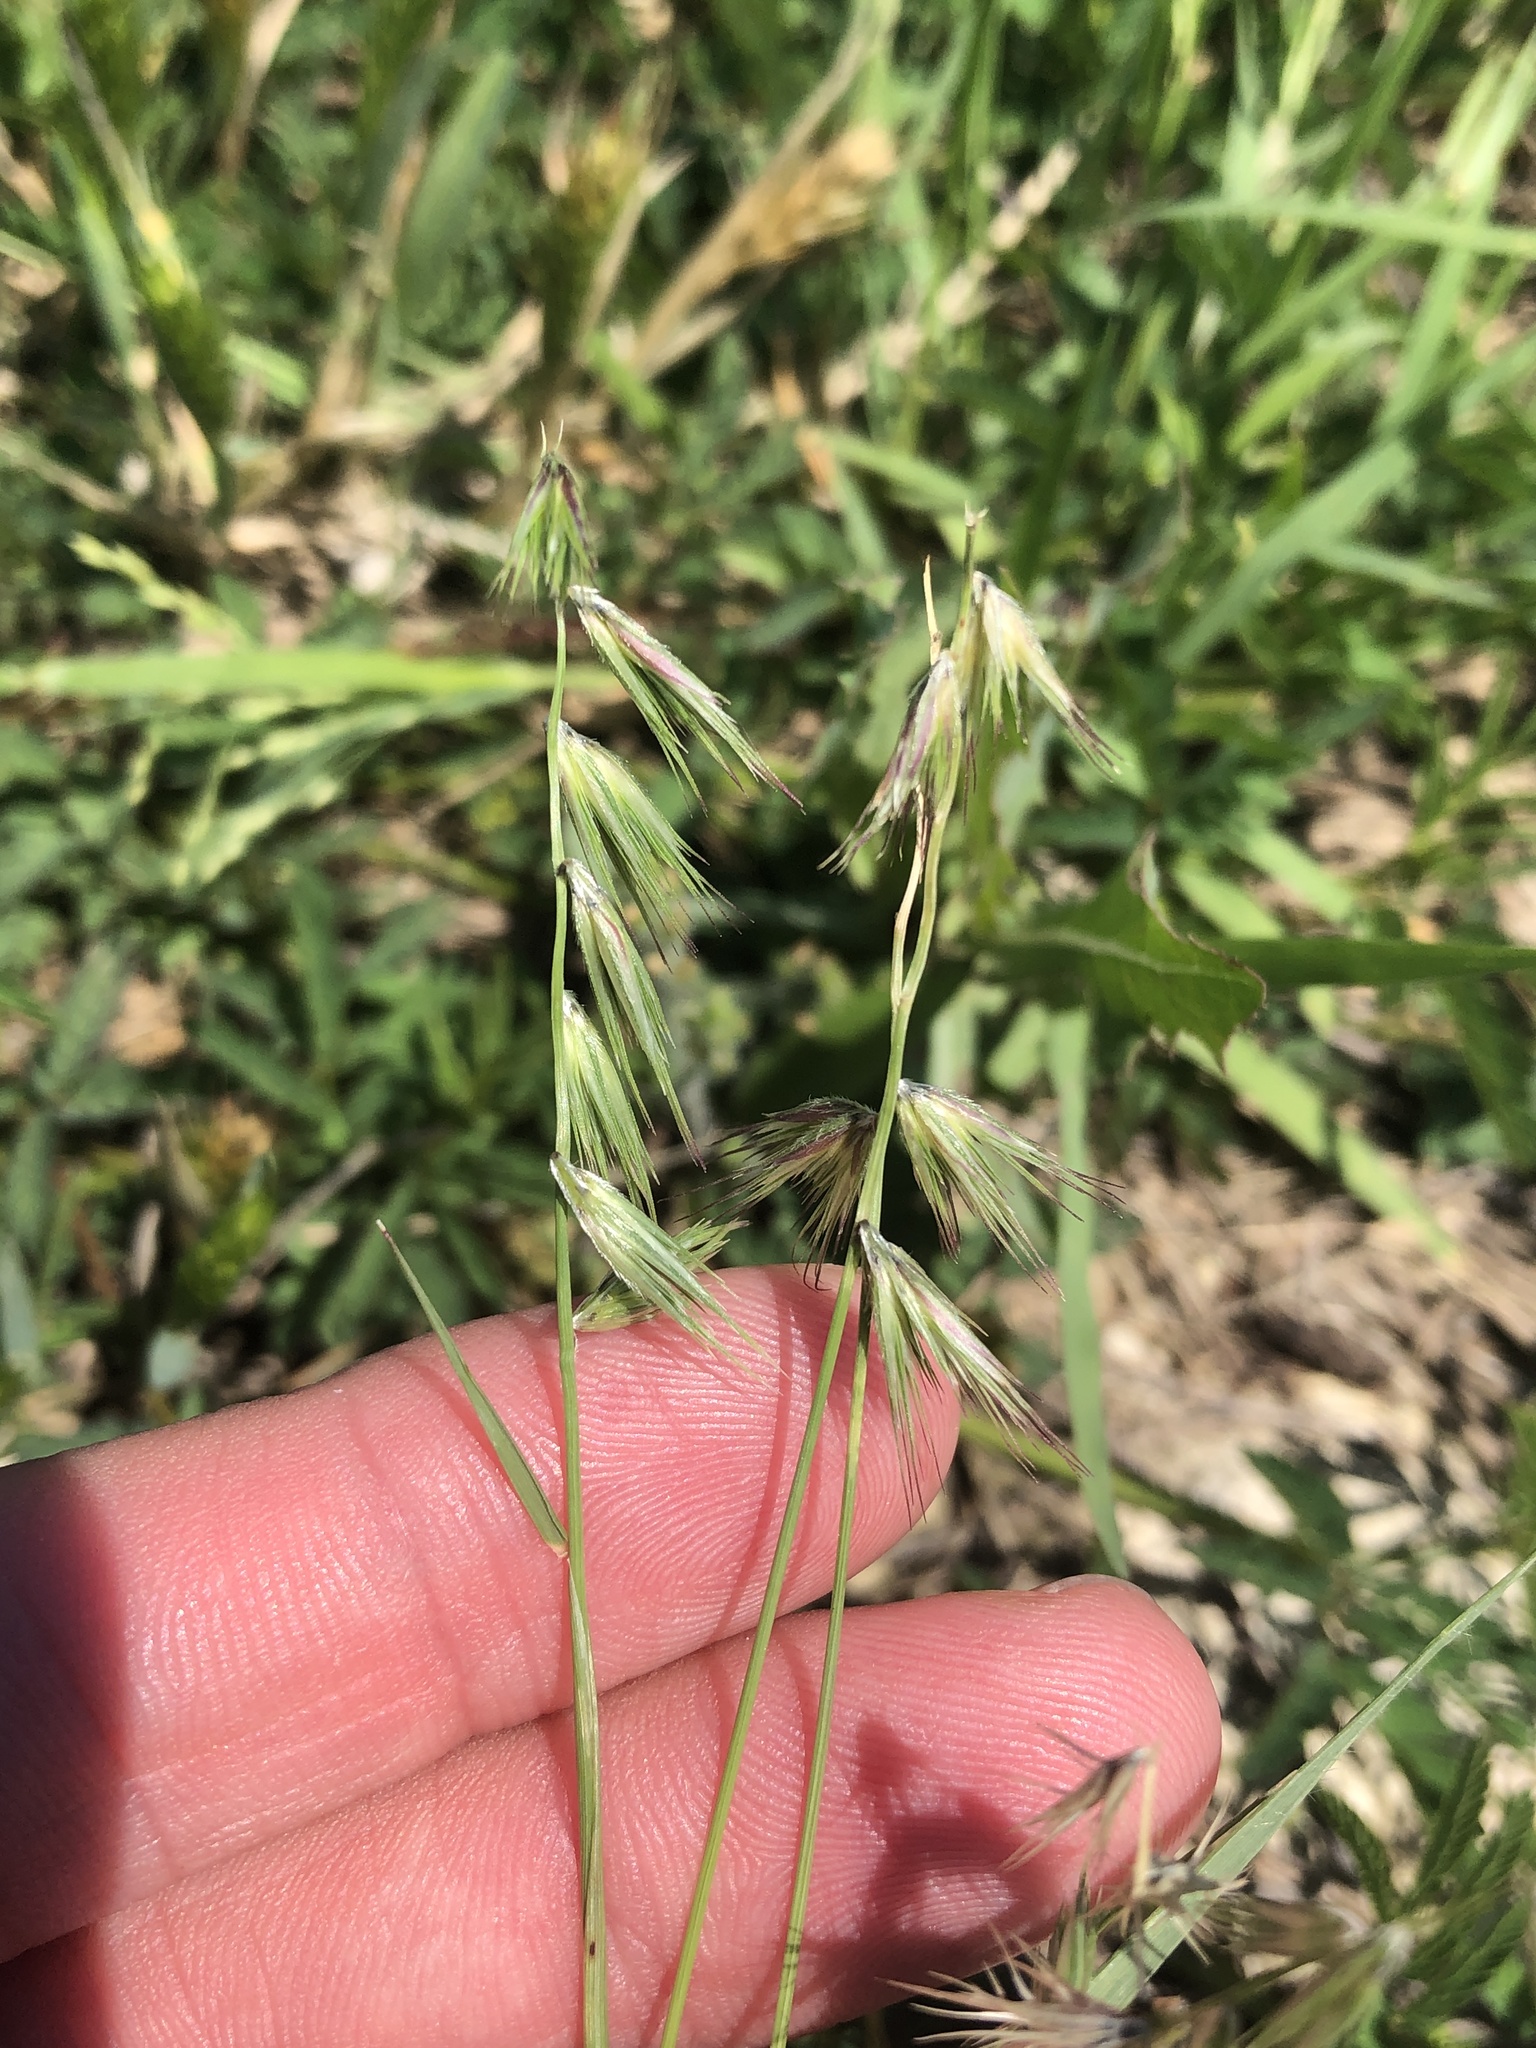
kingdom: Plantae
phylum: Tracheophyta
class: Liliopsida
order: Poales
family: Poaceae
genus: Bouteloua
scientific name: Bouteloua rigidiseta
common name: Texas grama
